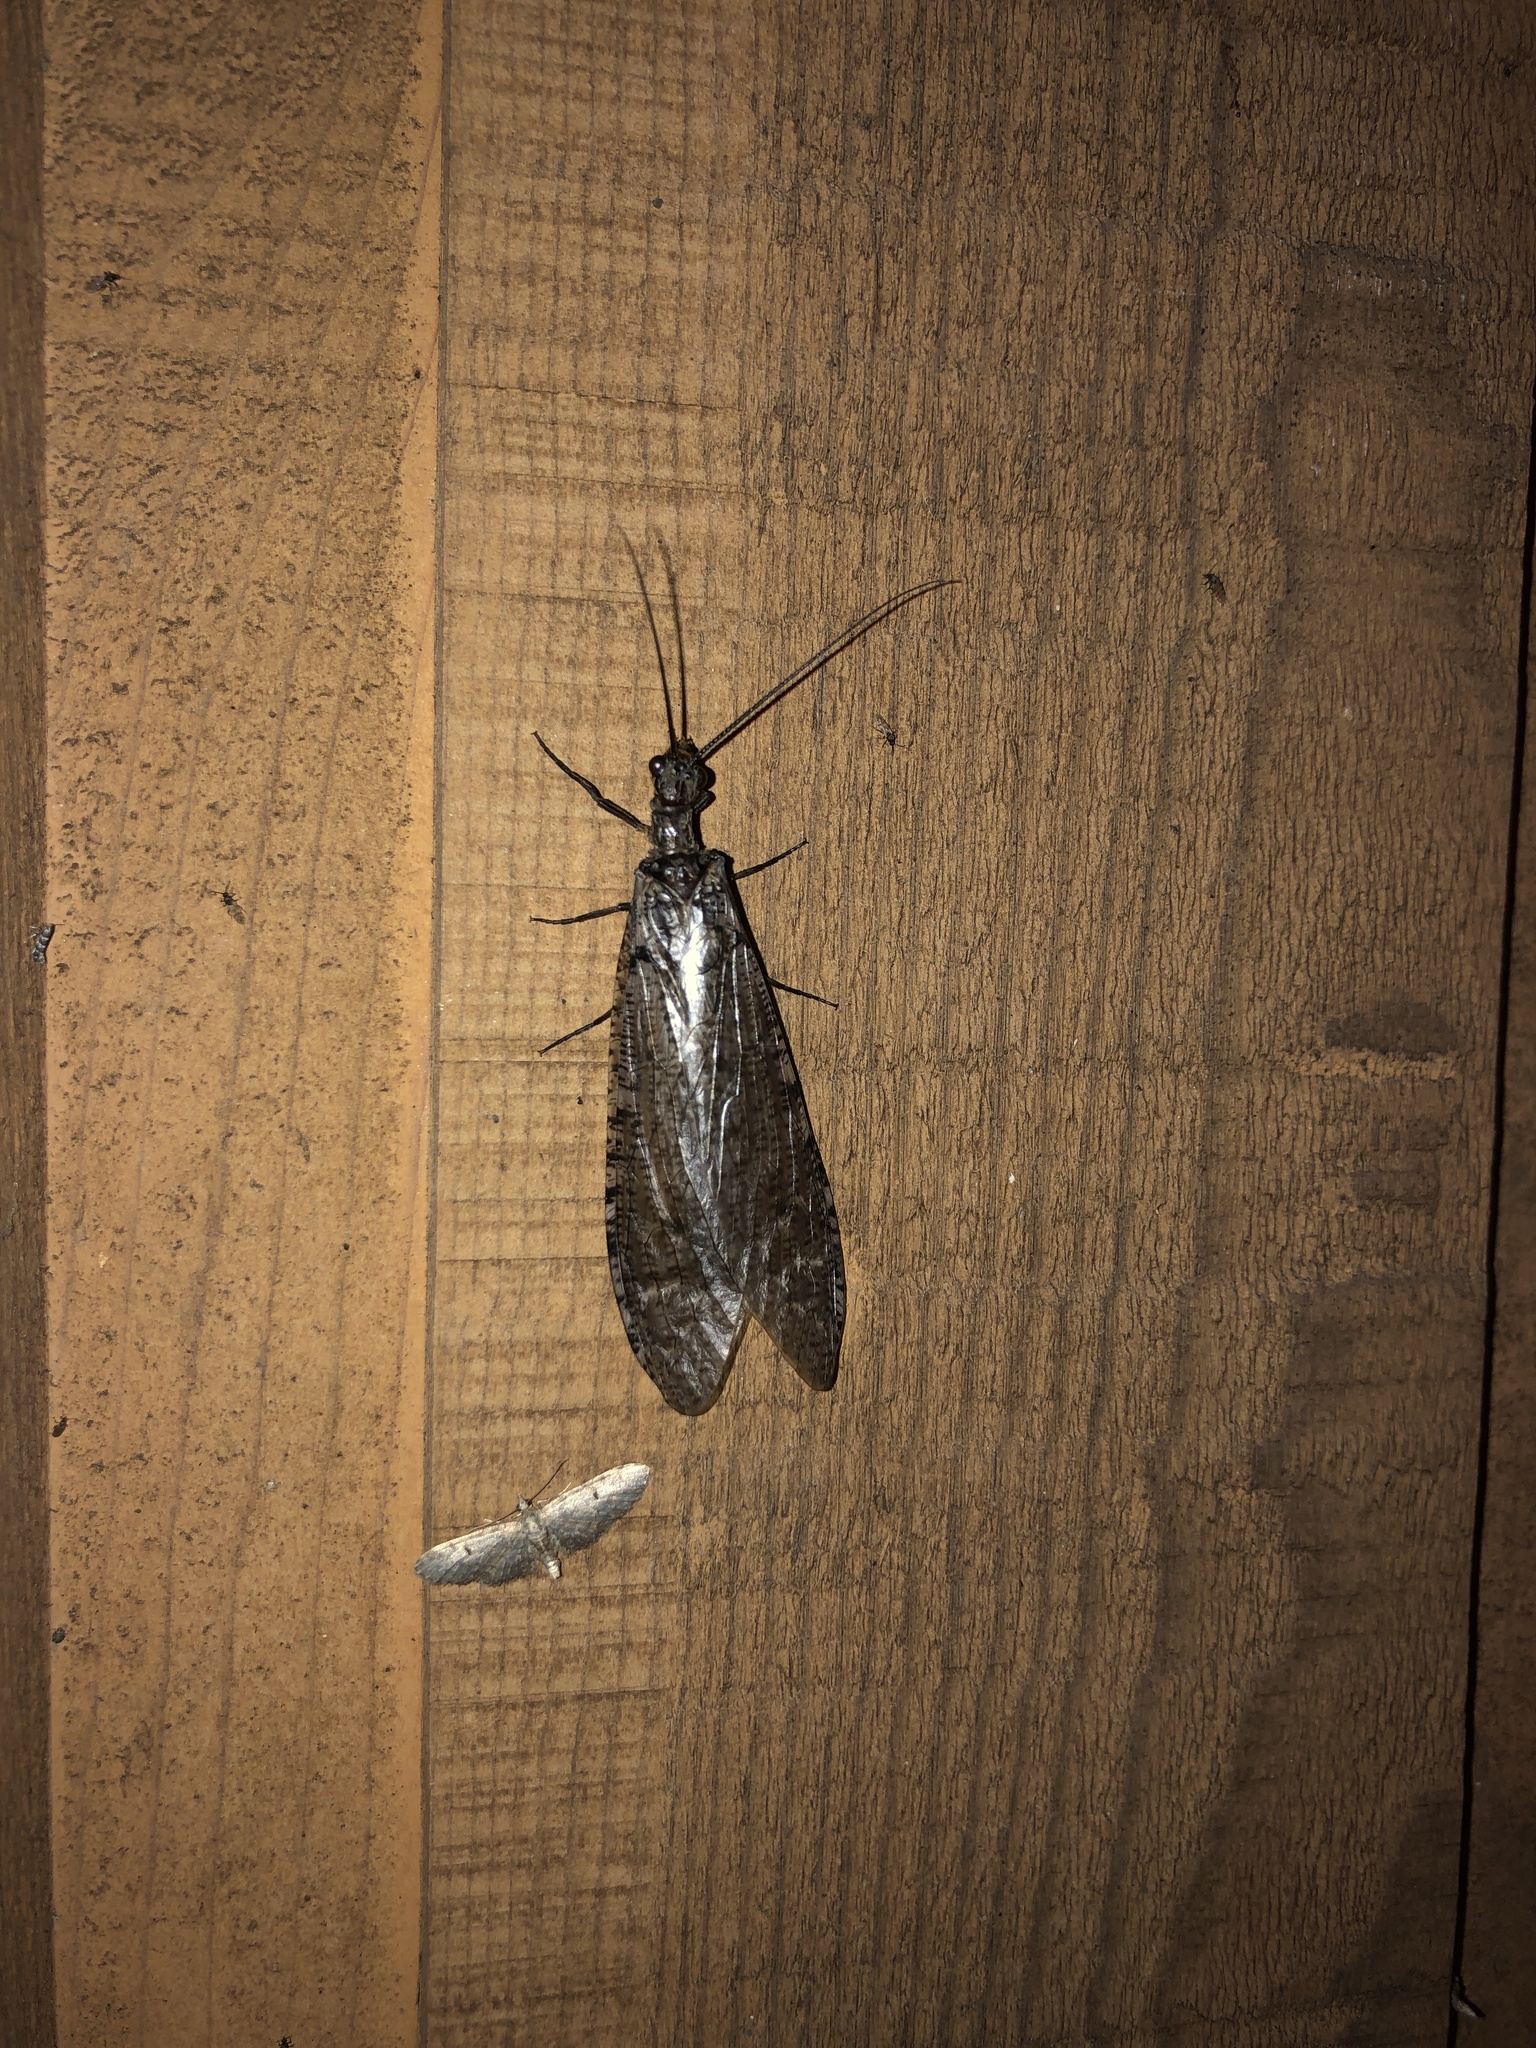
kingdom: Animalia
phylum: Arthropoda
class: Insecta
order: Megaloptera
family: Corydalidae
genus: Protochauliodes
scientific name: Protochauliodes spenceri
